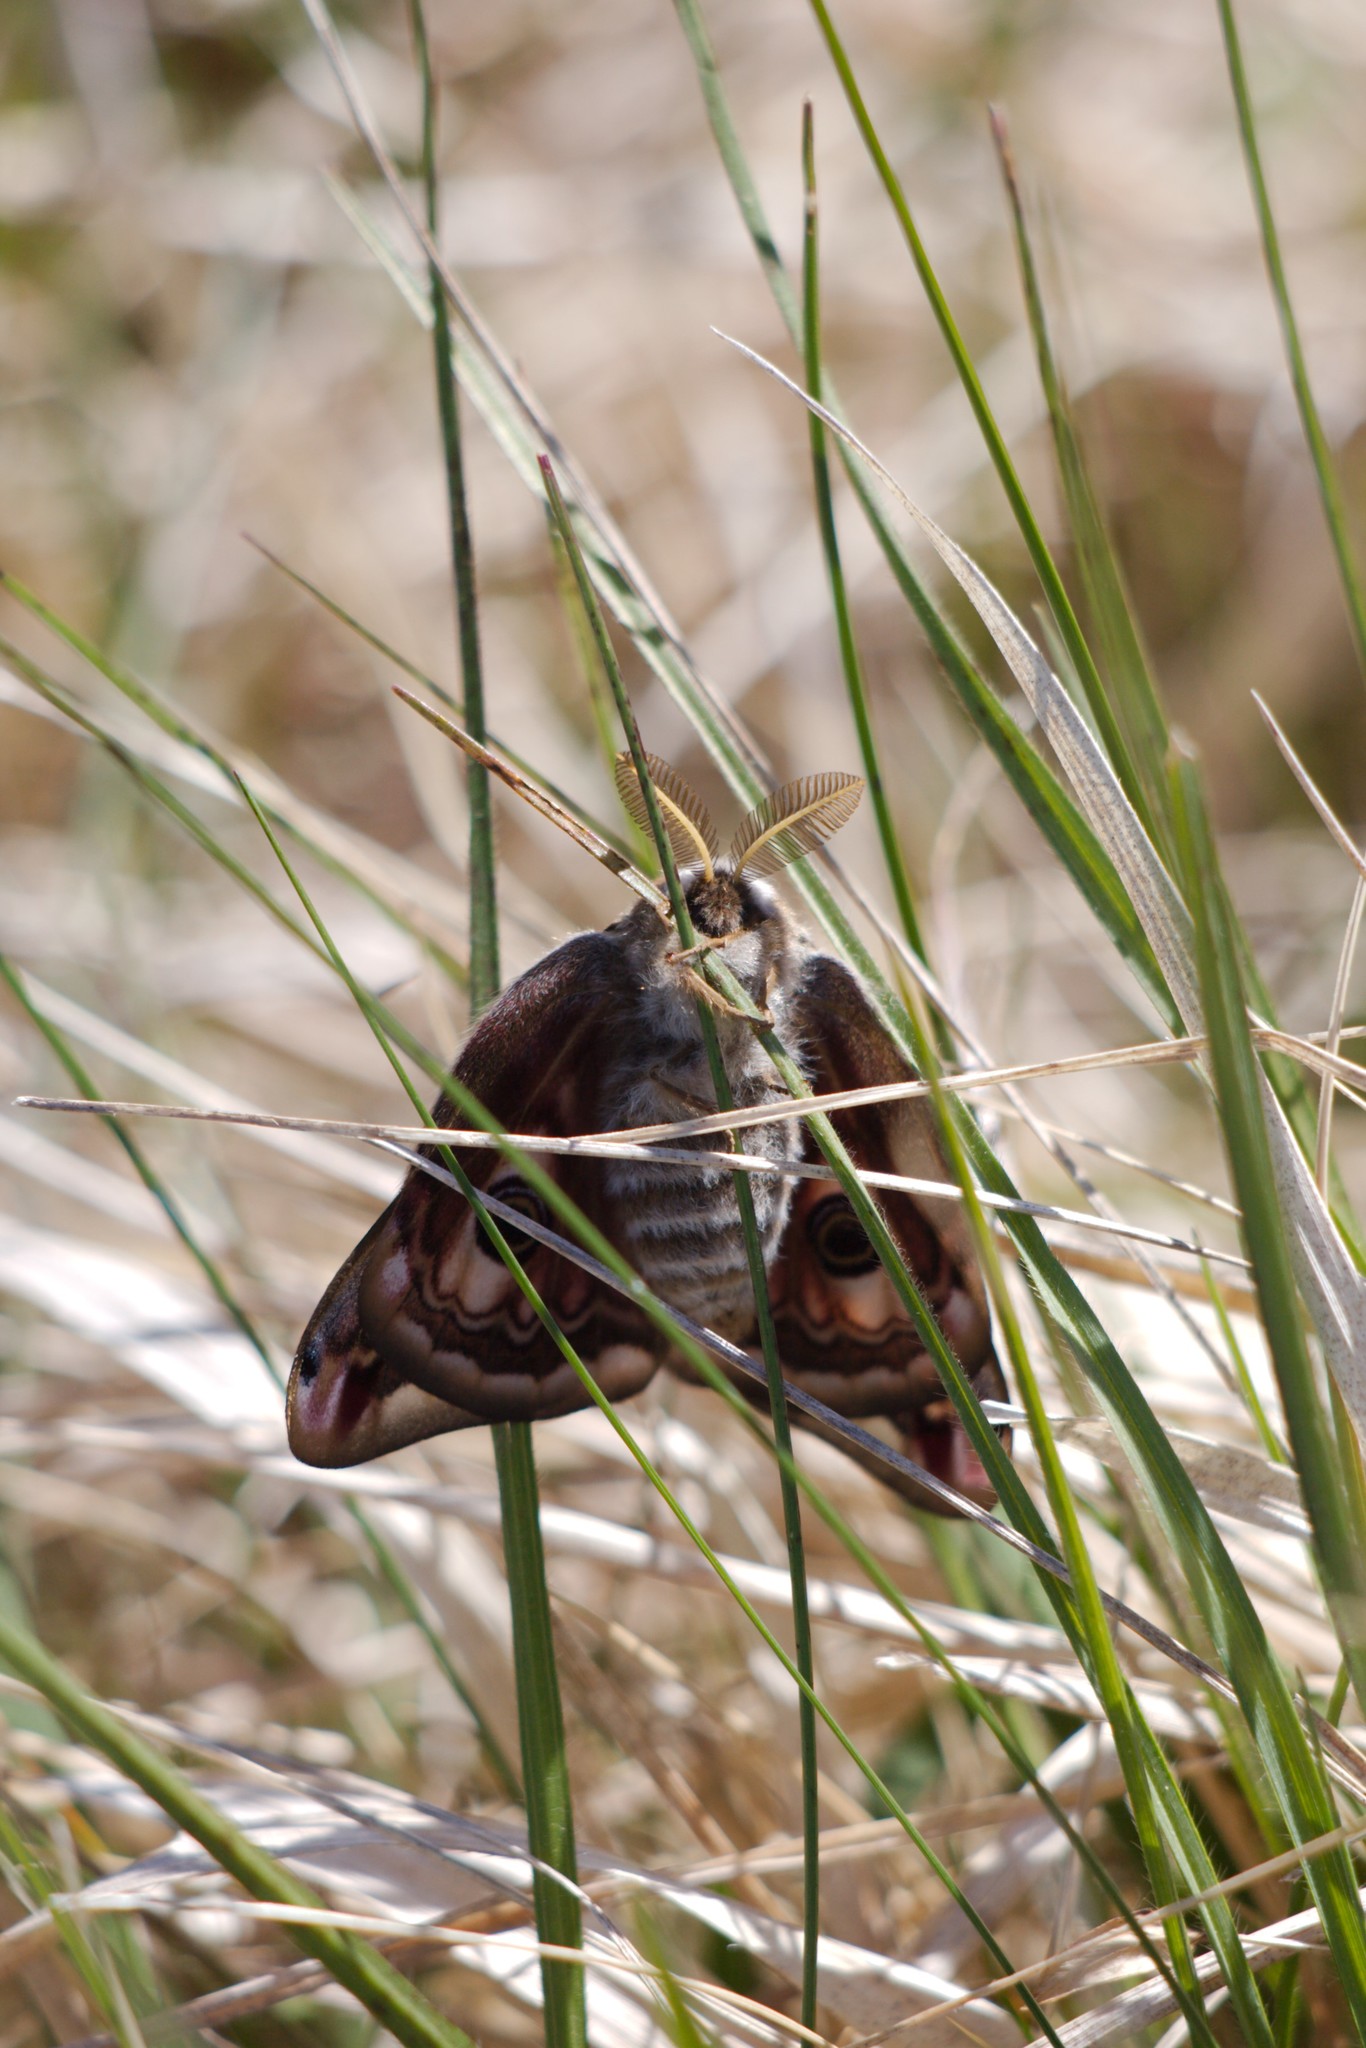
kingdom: Animalia
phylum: Arthropoda
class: Insecta
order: Lepidoptera
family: Saturniidae
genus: Saturnia
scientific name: Saturnia pavonia
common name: Emperor moth
